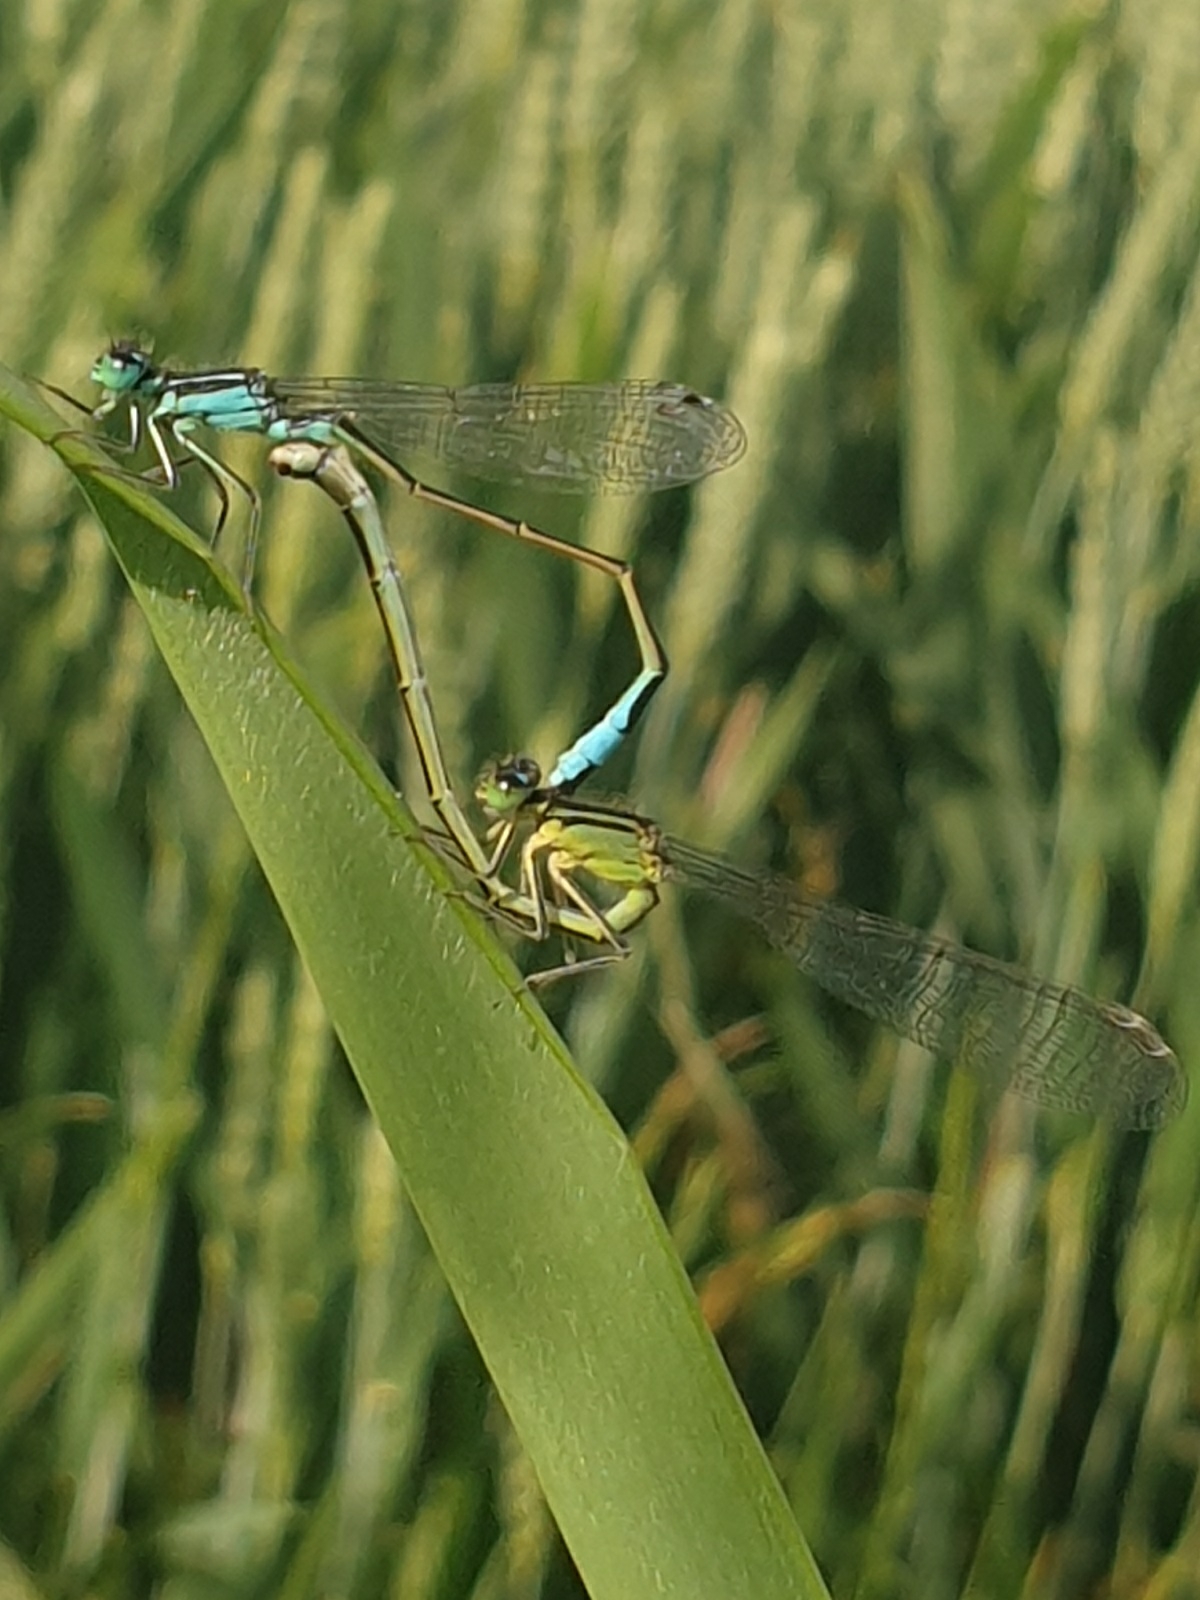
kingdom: Animalia
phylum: Arthropoda
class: Insecta
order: Odonata
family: Coenagrionidae
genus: Ischnura
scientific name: Ischnura elegans
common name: Blue-tailed damselfly
